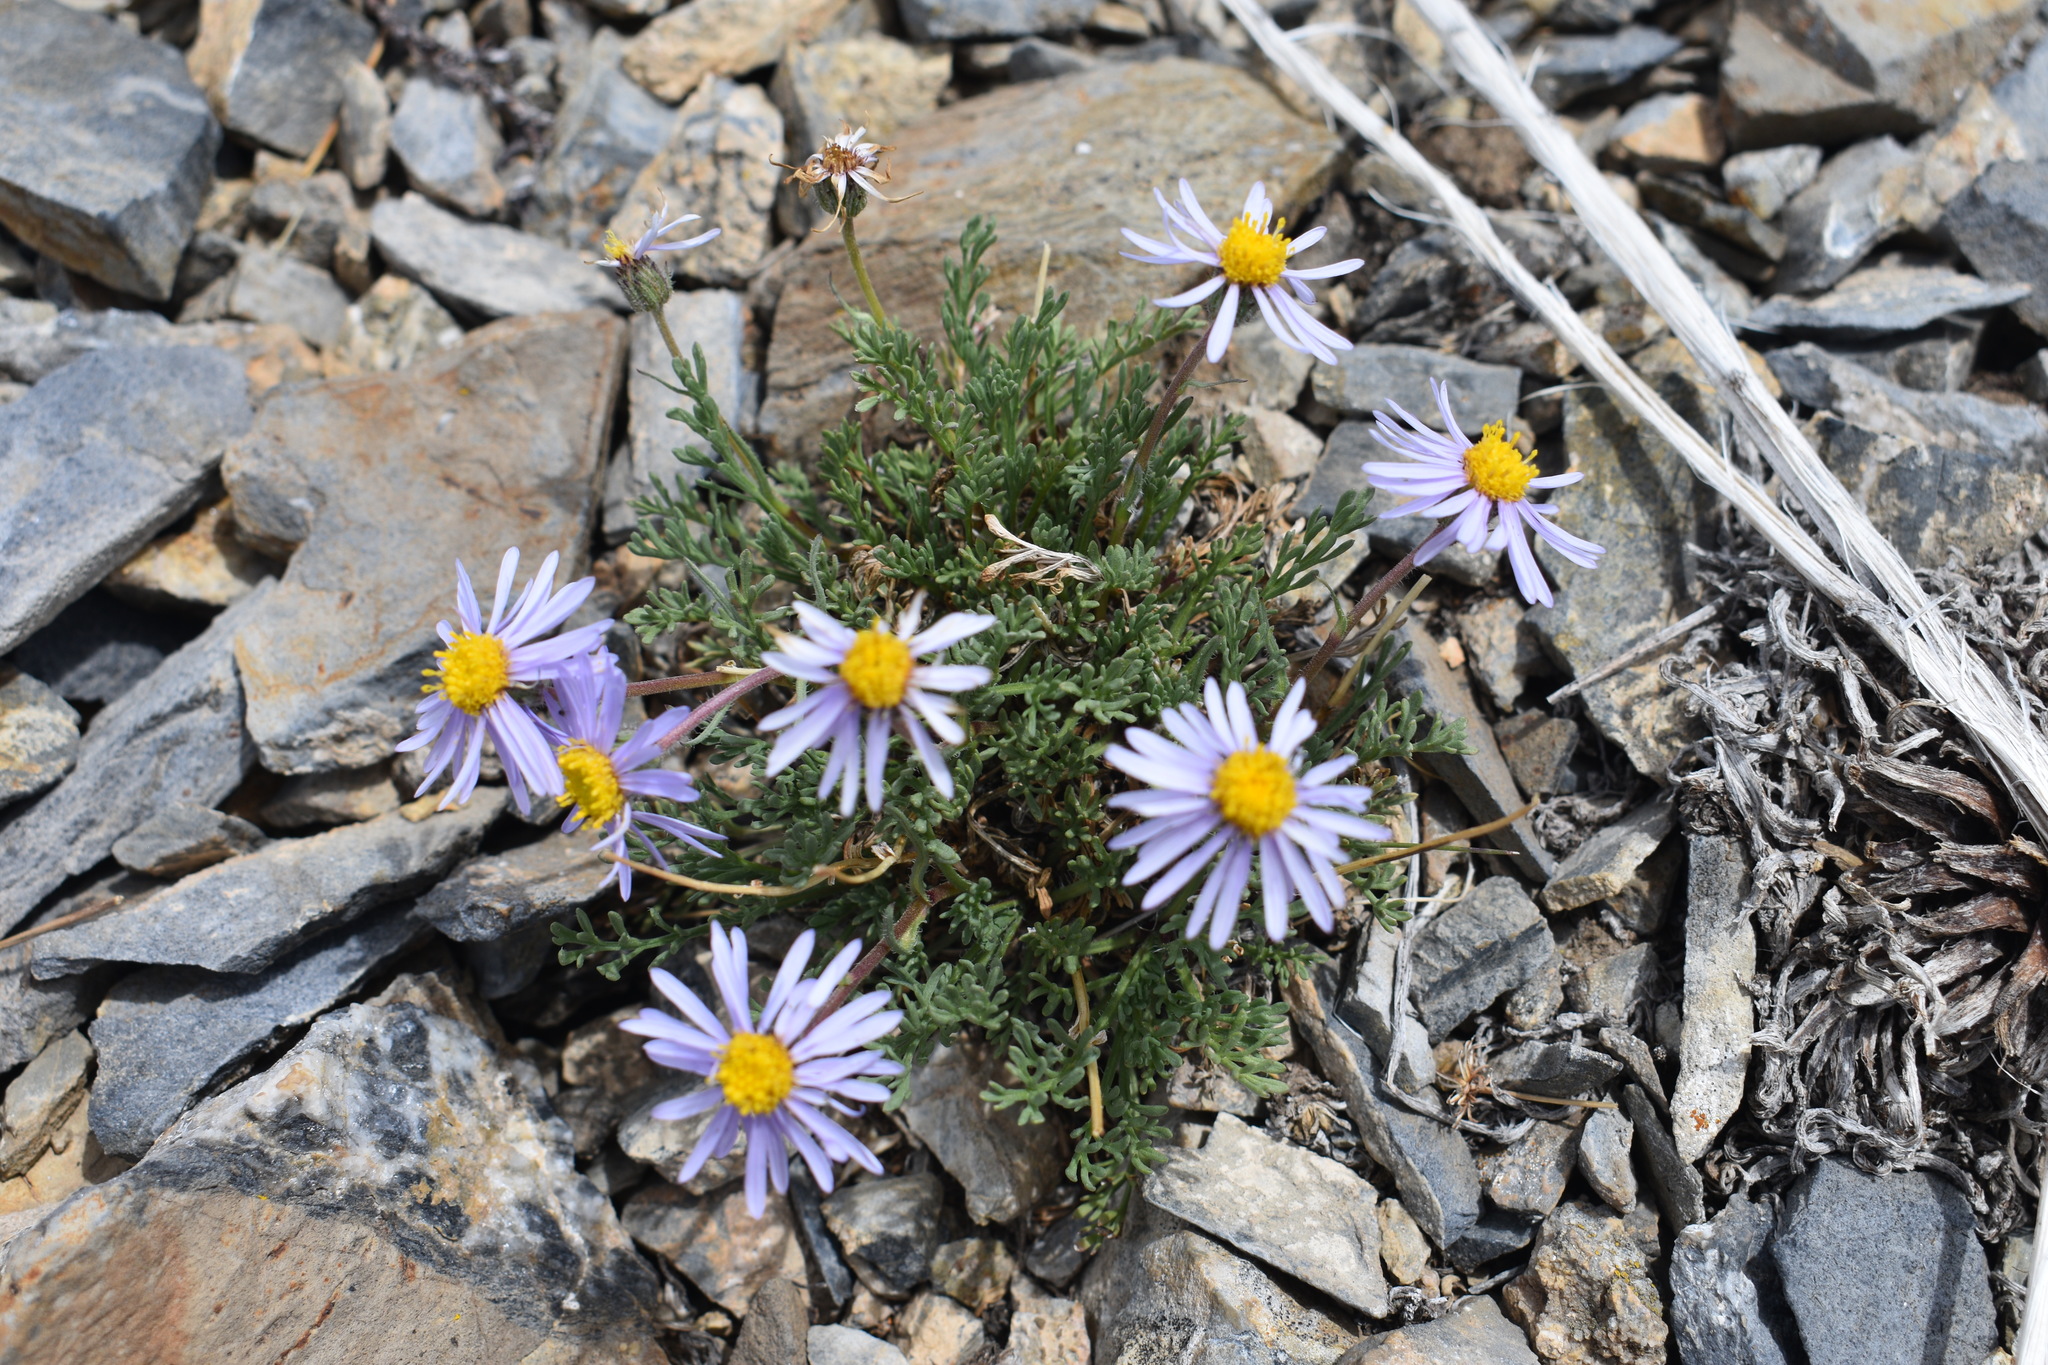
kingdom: Plantae
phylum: Tracheophyta
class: Magnoliopsida
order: Asterales
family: Asteraceae
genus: Erigeron
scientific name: Erigeron pinnatisectus
